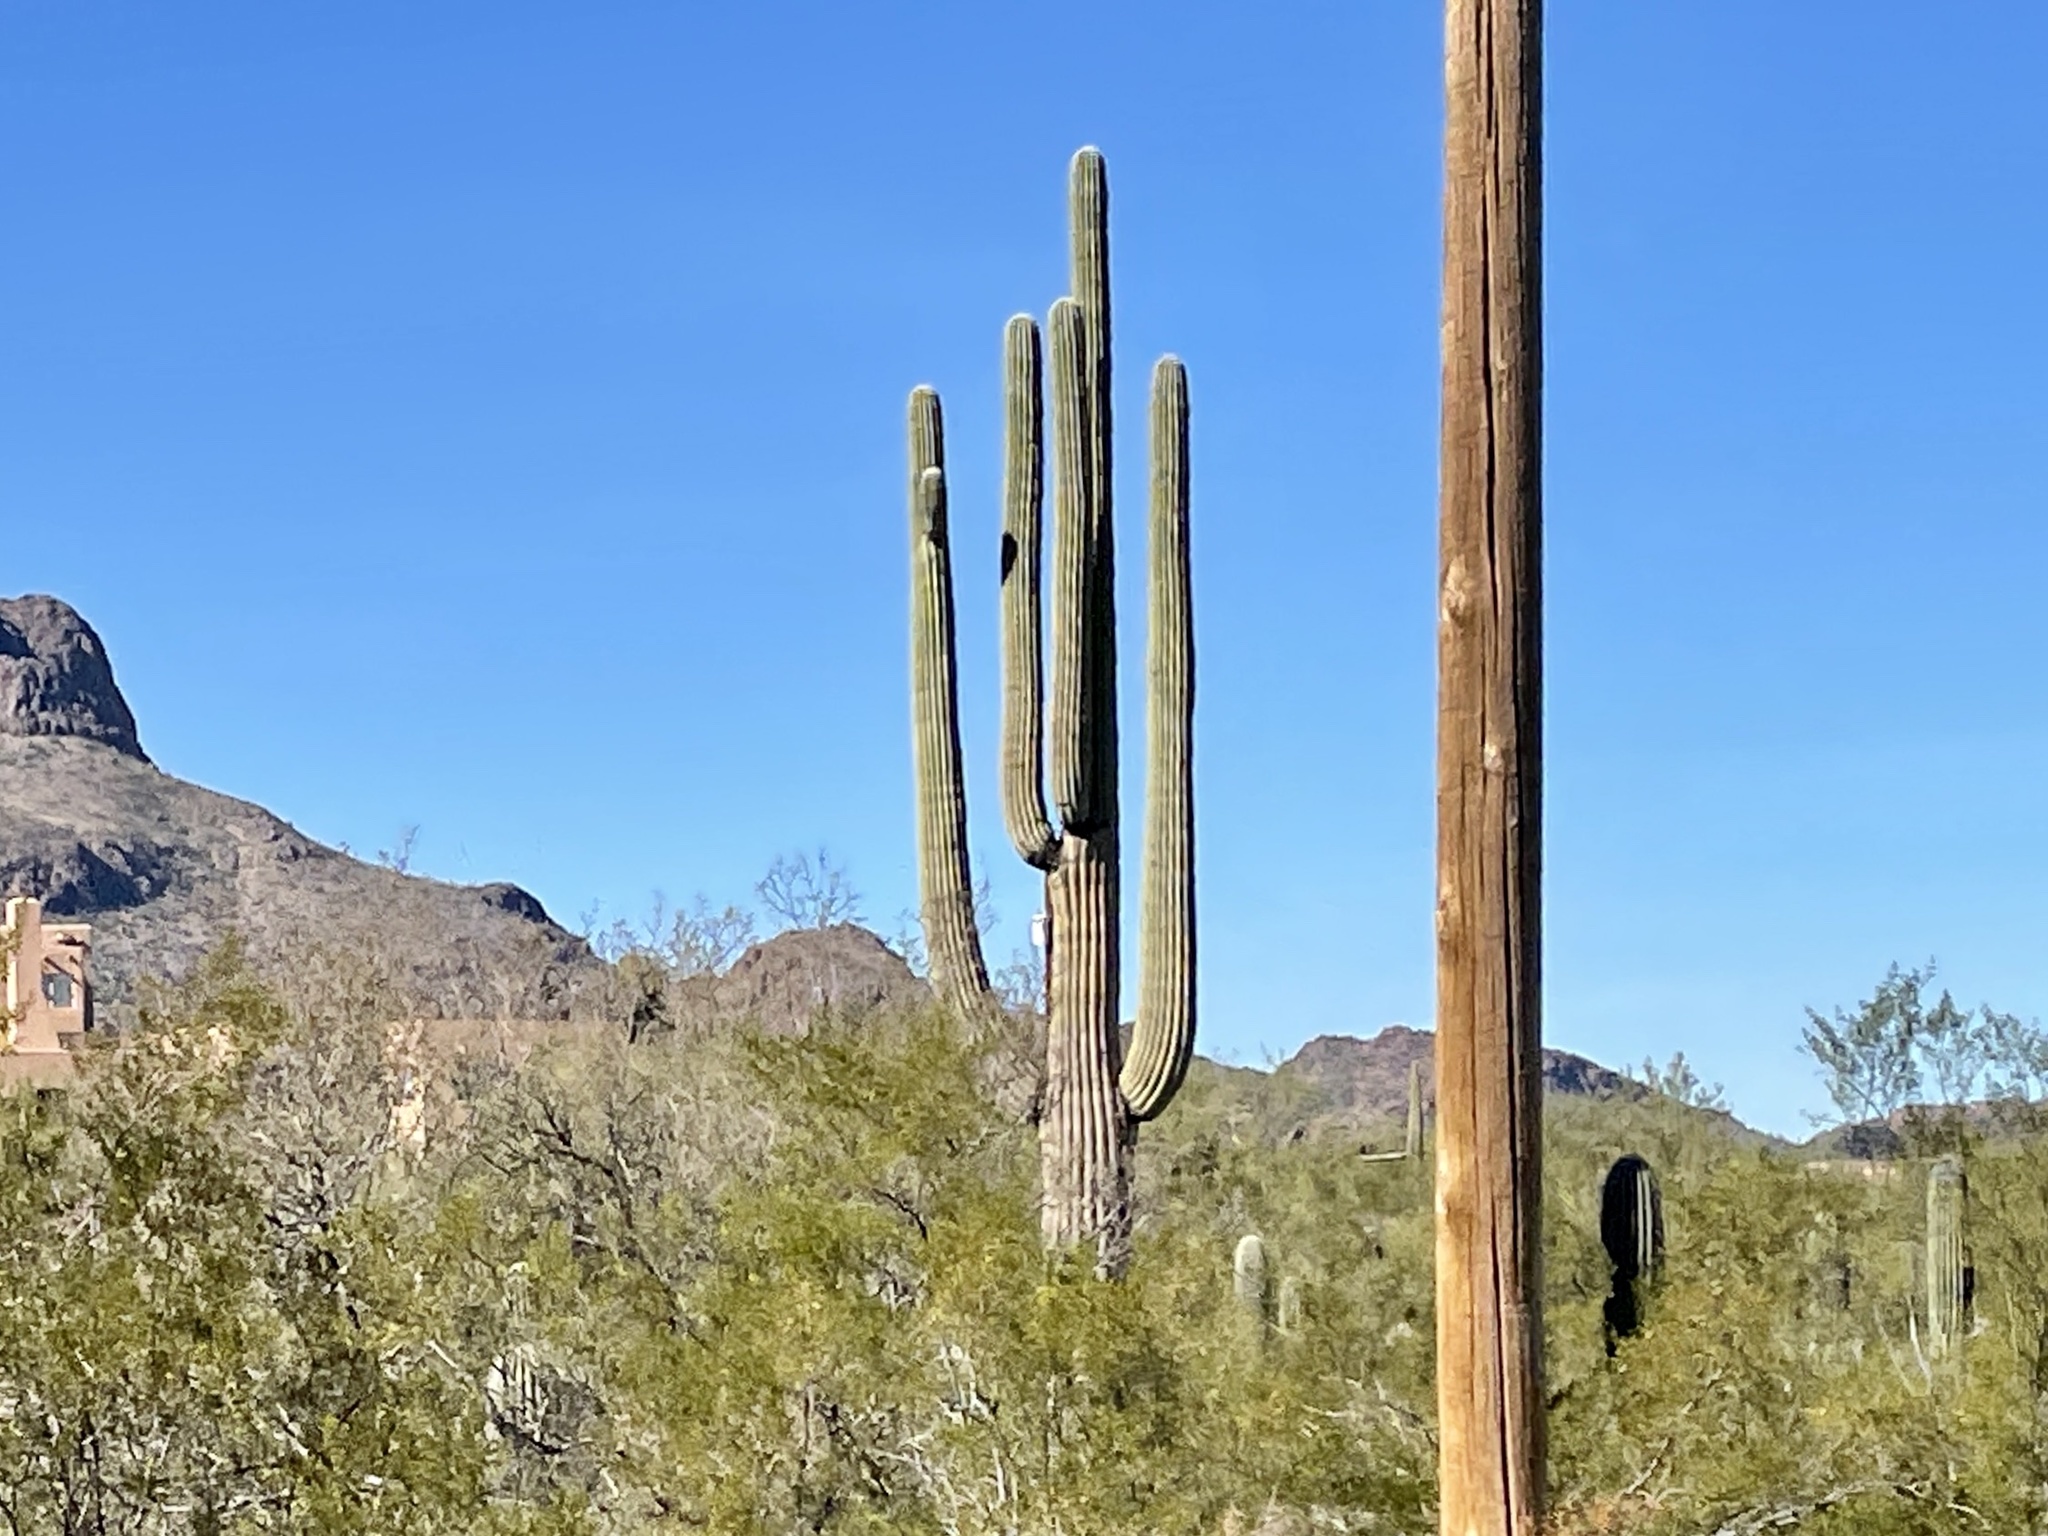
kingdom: Plantae
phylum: Tracheophyta
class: Magnoliopsida
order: Caryophyllales
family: Cactaceae
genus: Carnegiea
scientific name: Carnegiea gigantea
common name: Saguaro
